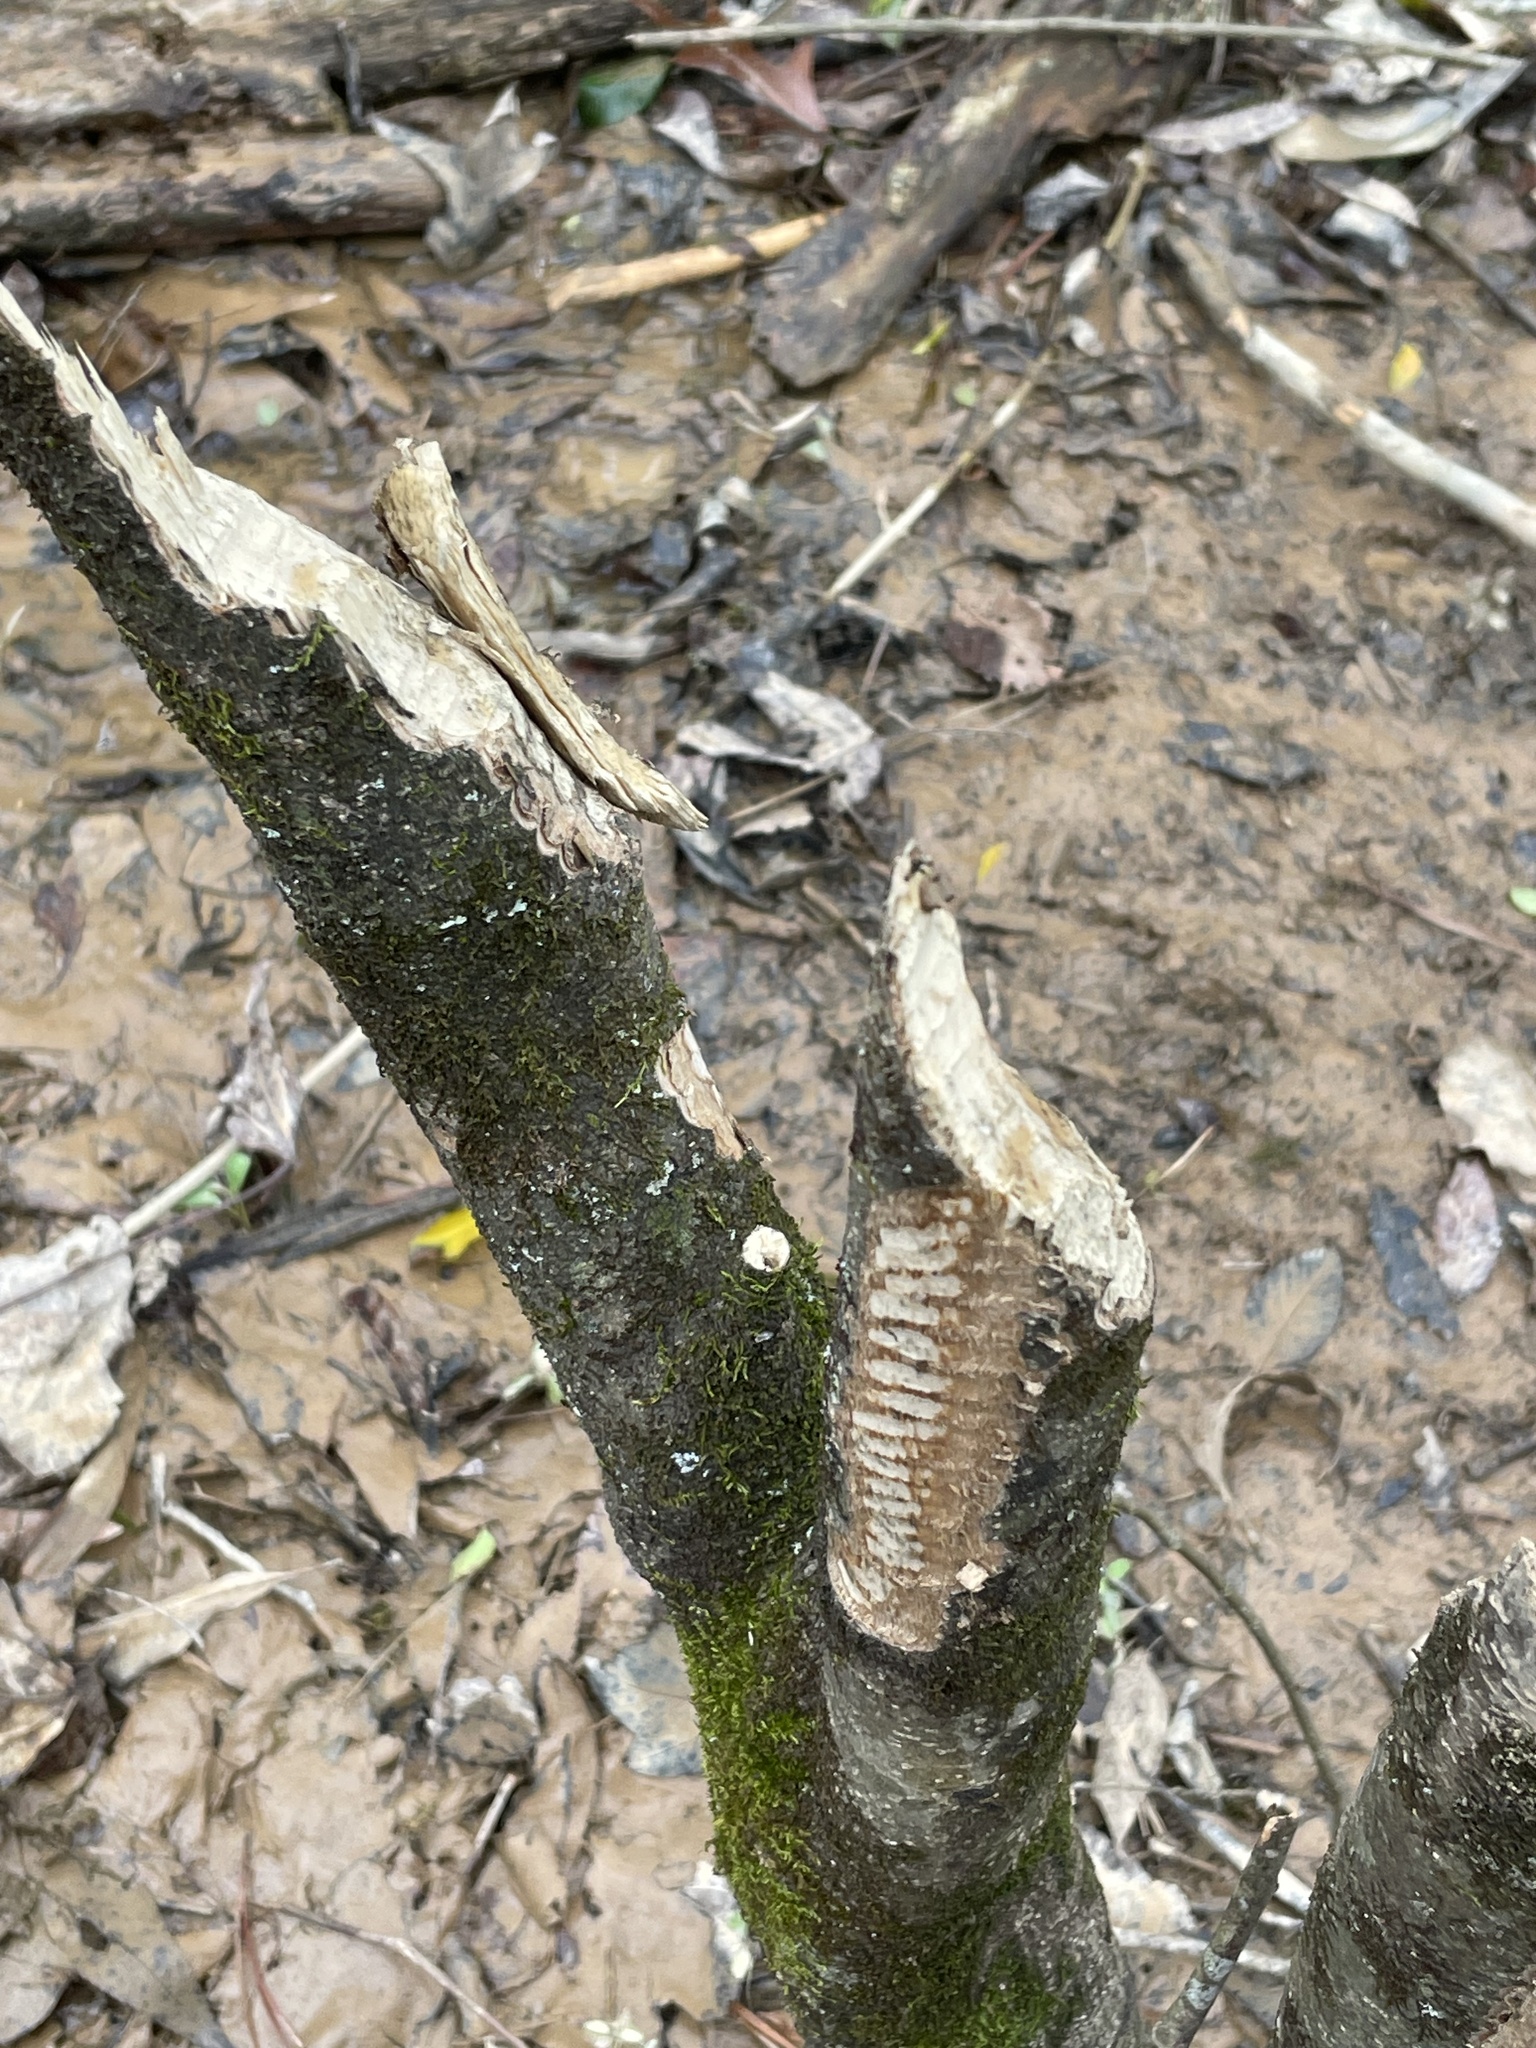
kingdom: Animalia
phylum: Chordata
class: Mammalia
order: Rodentia
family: Castoridae
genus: Castor
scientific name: Castor canadensis
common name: American beaver
